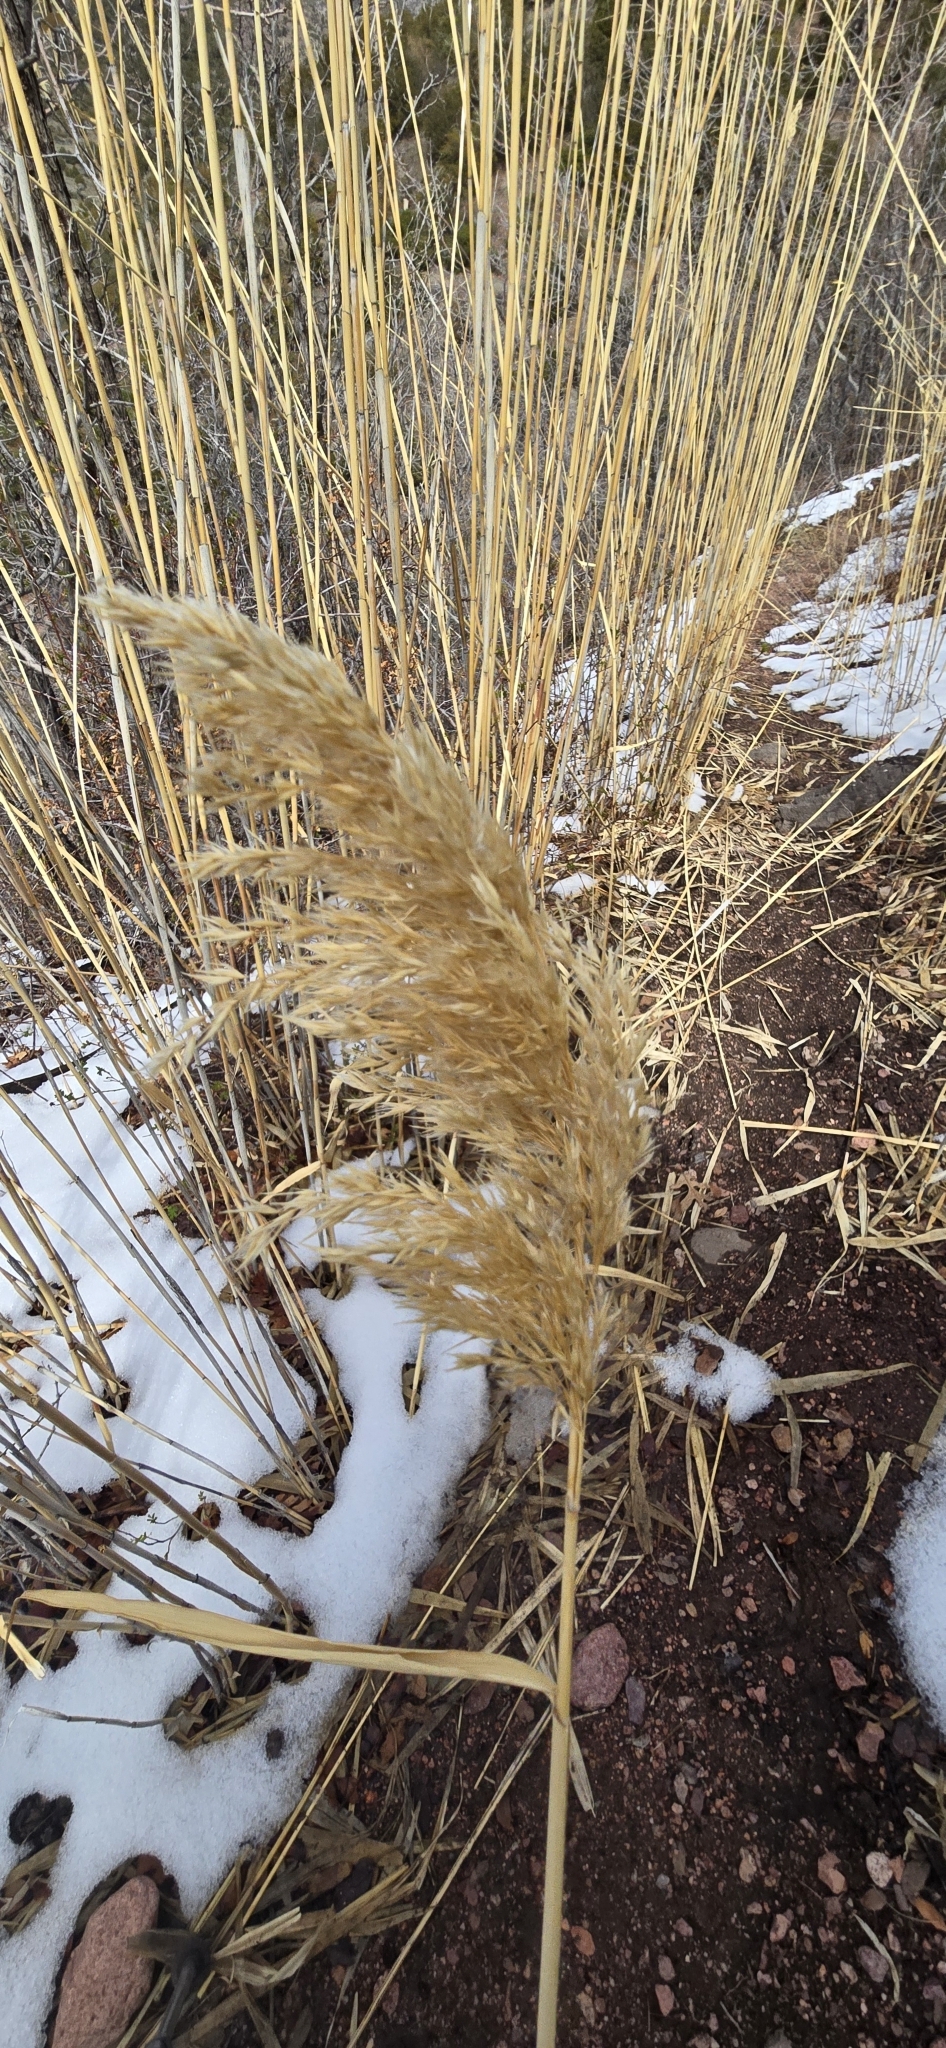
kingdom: Plantae
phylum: Tracheophyta
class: Liliopsida
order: Poales
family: Poaceae
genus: Phragmites
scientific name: Phragmites australis
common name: Common reed
